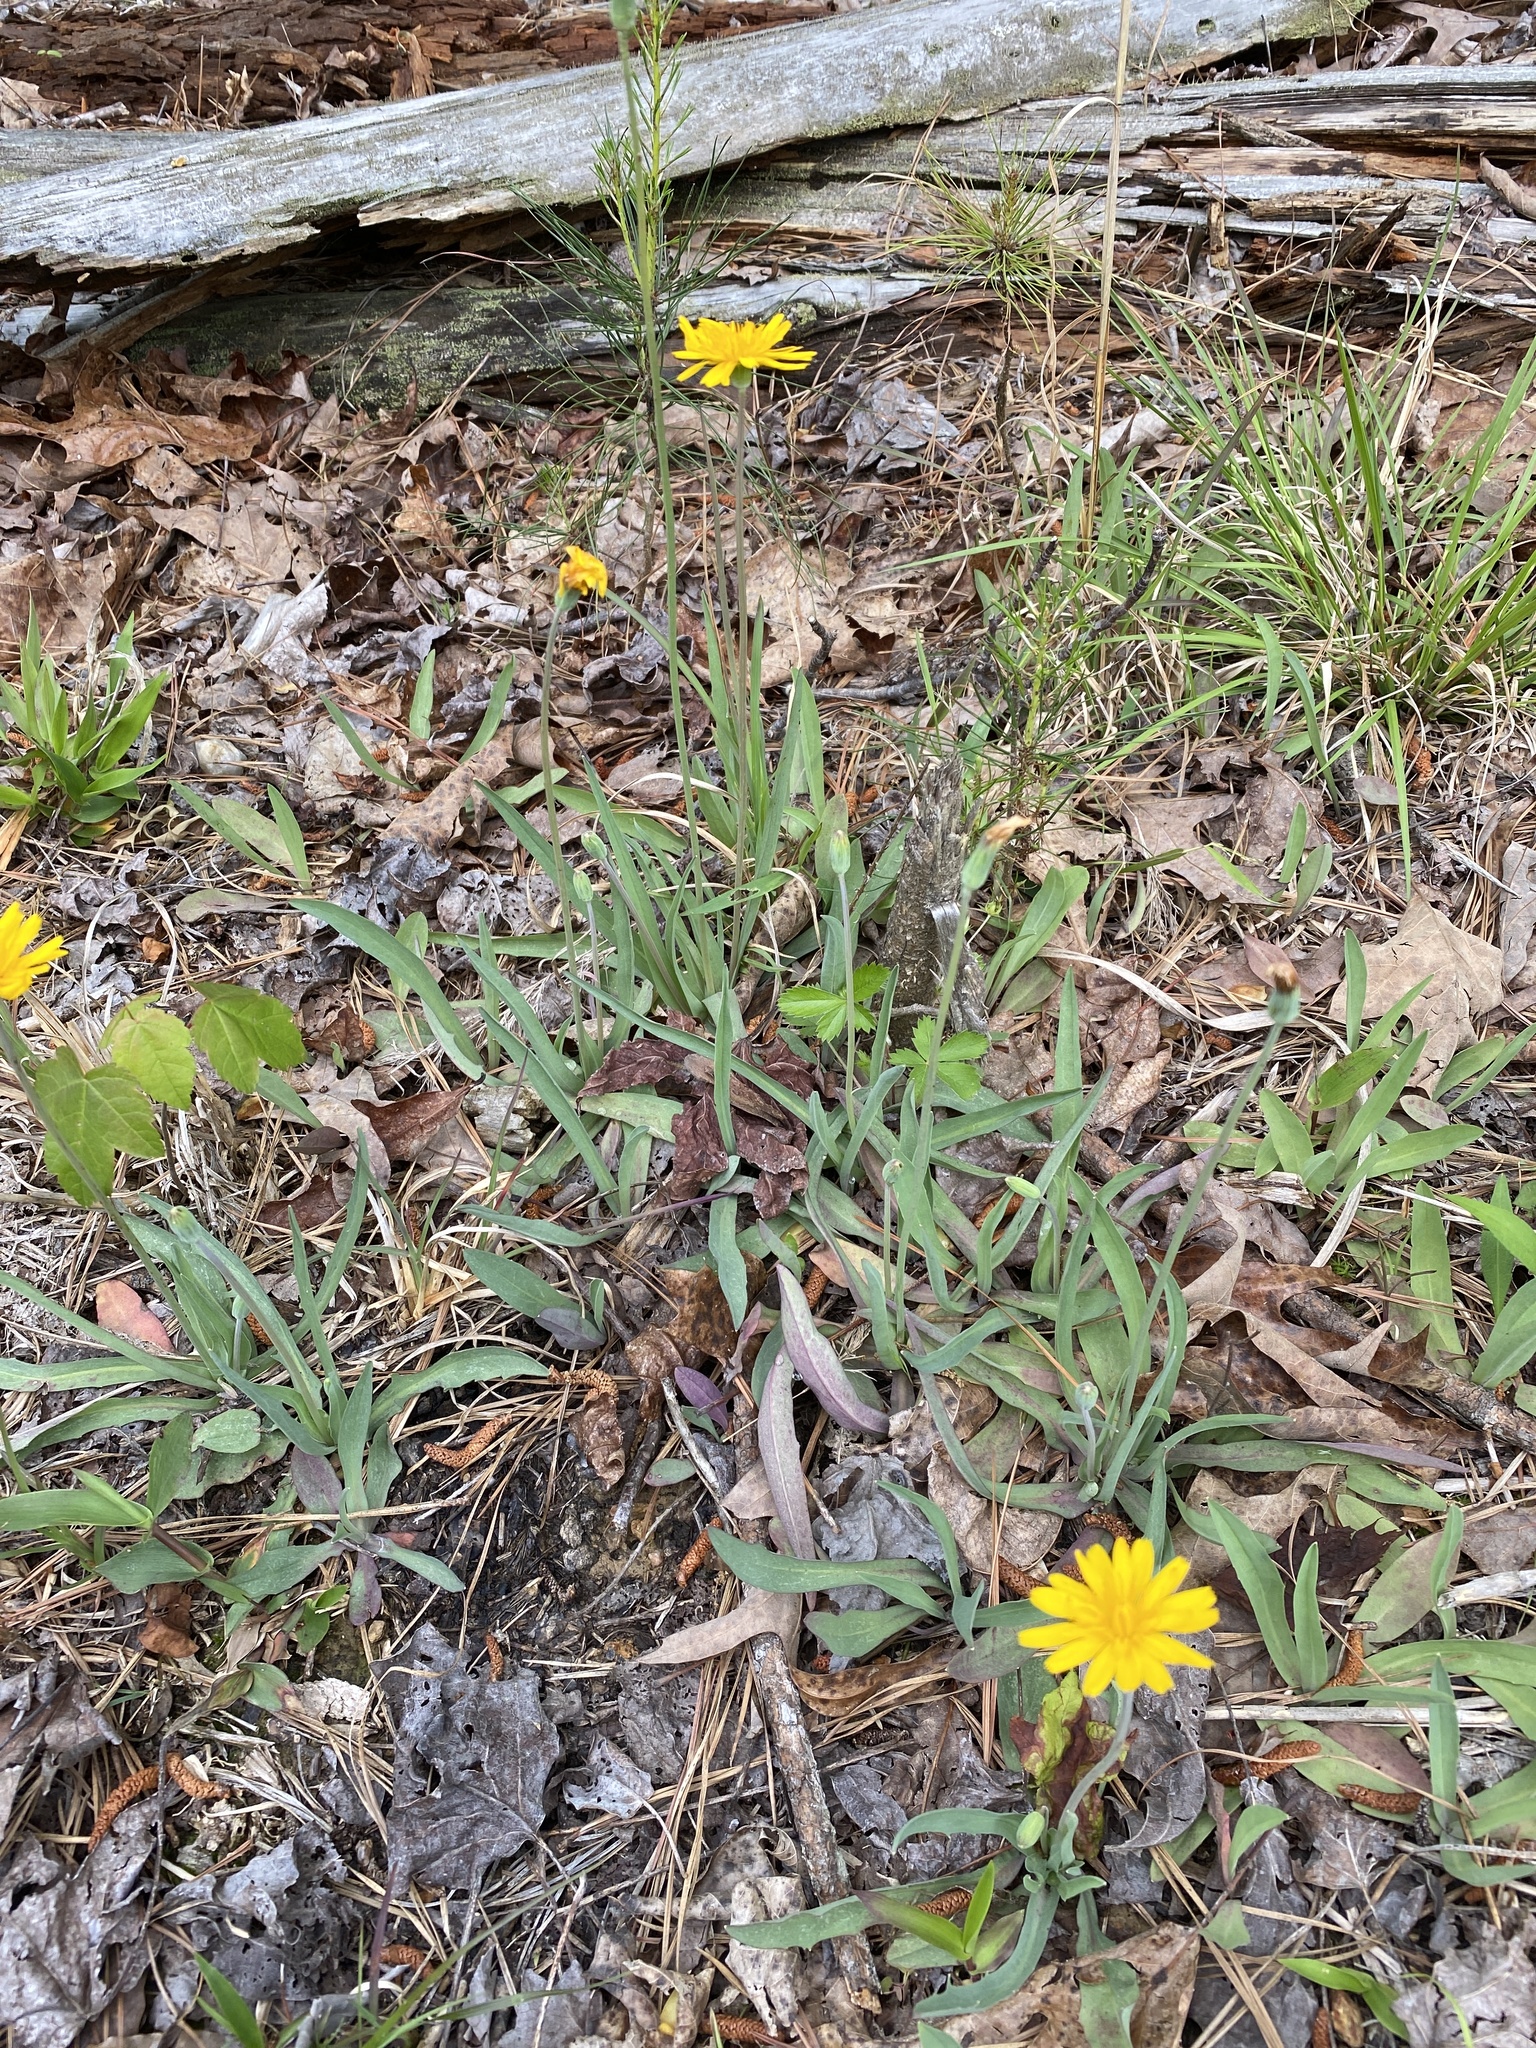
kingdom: Plantae
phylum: Tracheophyta
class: Magnoliopsida
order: Asterales
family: Asteraceae
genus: Krigia
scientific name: Krigia dandelion
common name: Colonial dwarf-dandelion
